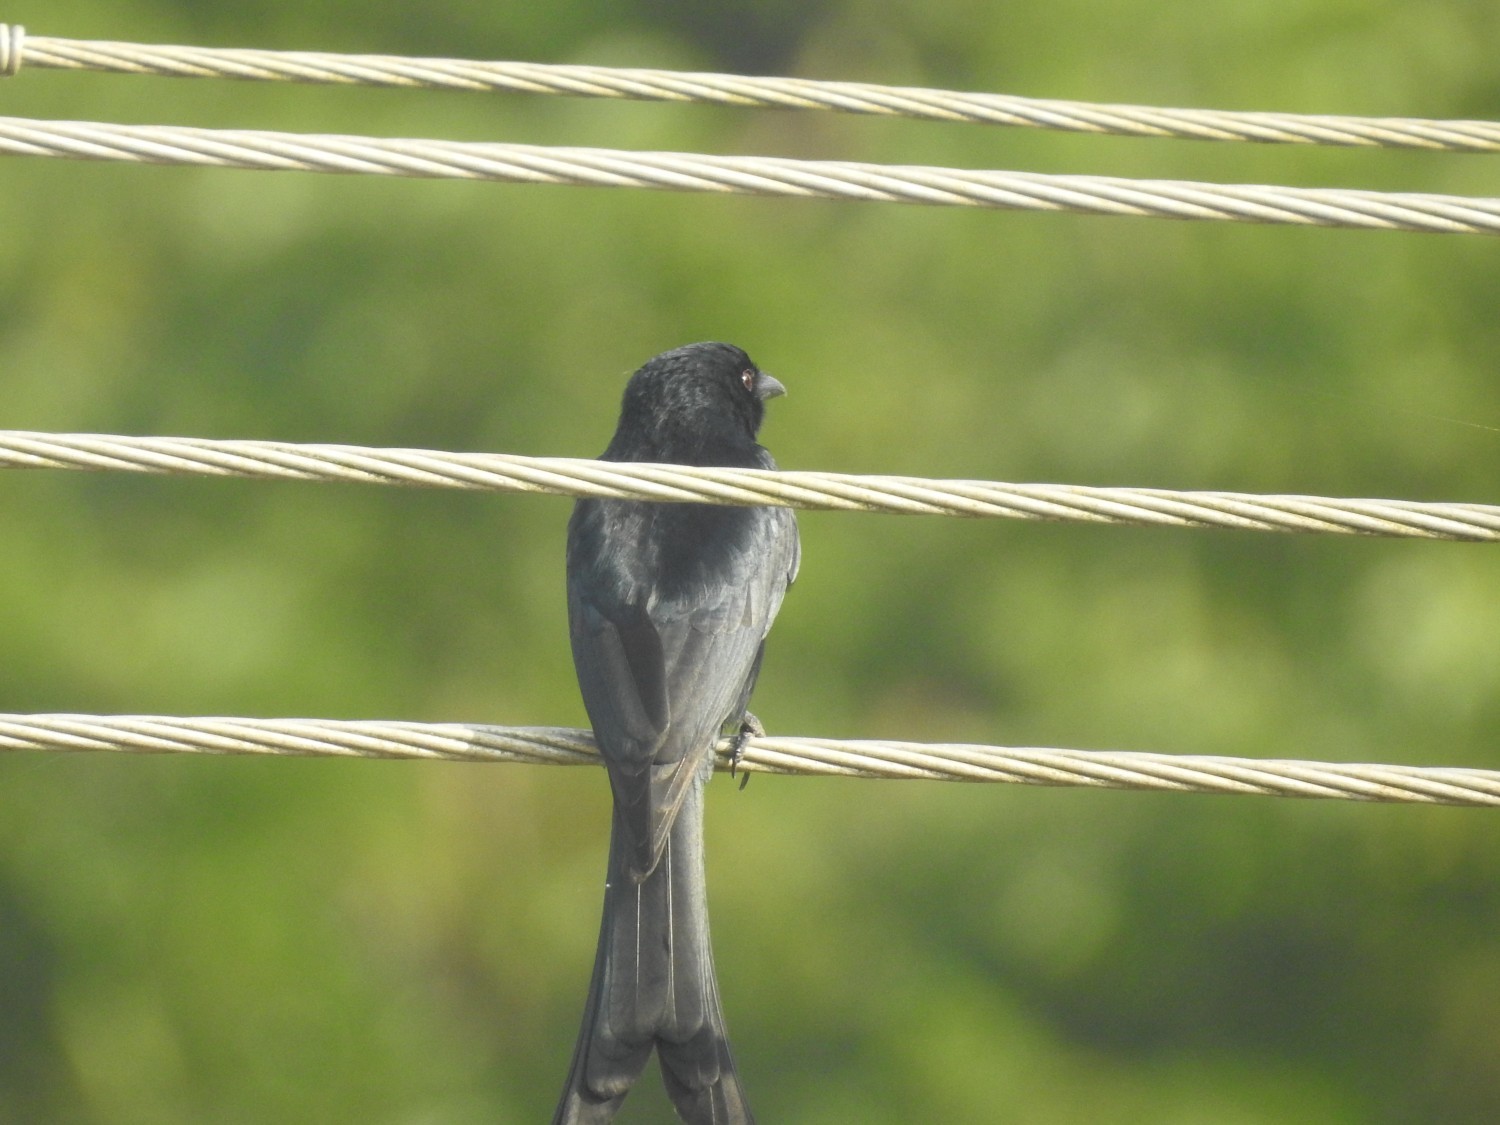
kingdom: Animalia
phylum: Chordata
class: Aves
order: Passeriformes
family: Dicruridae
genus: Dicrurus
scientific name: Dicrurus macrocercus
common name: Black drongo
